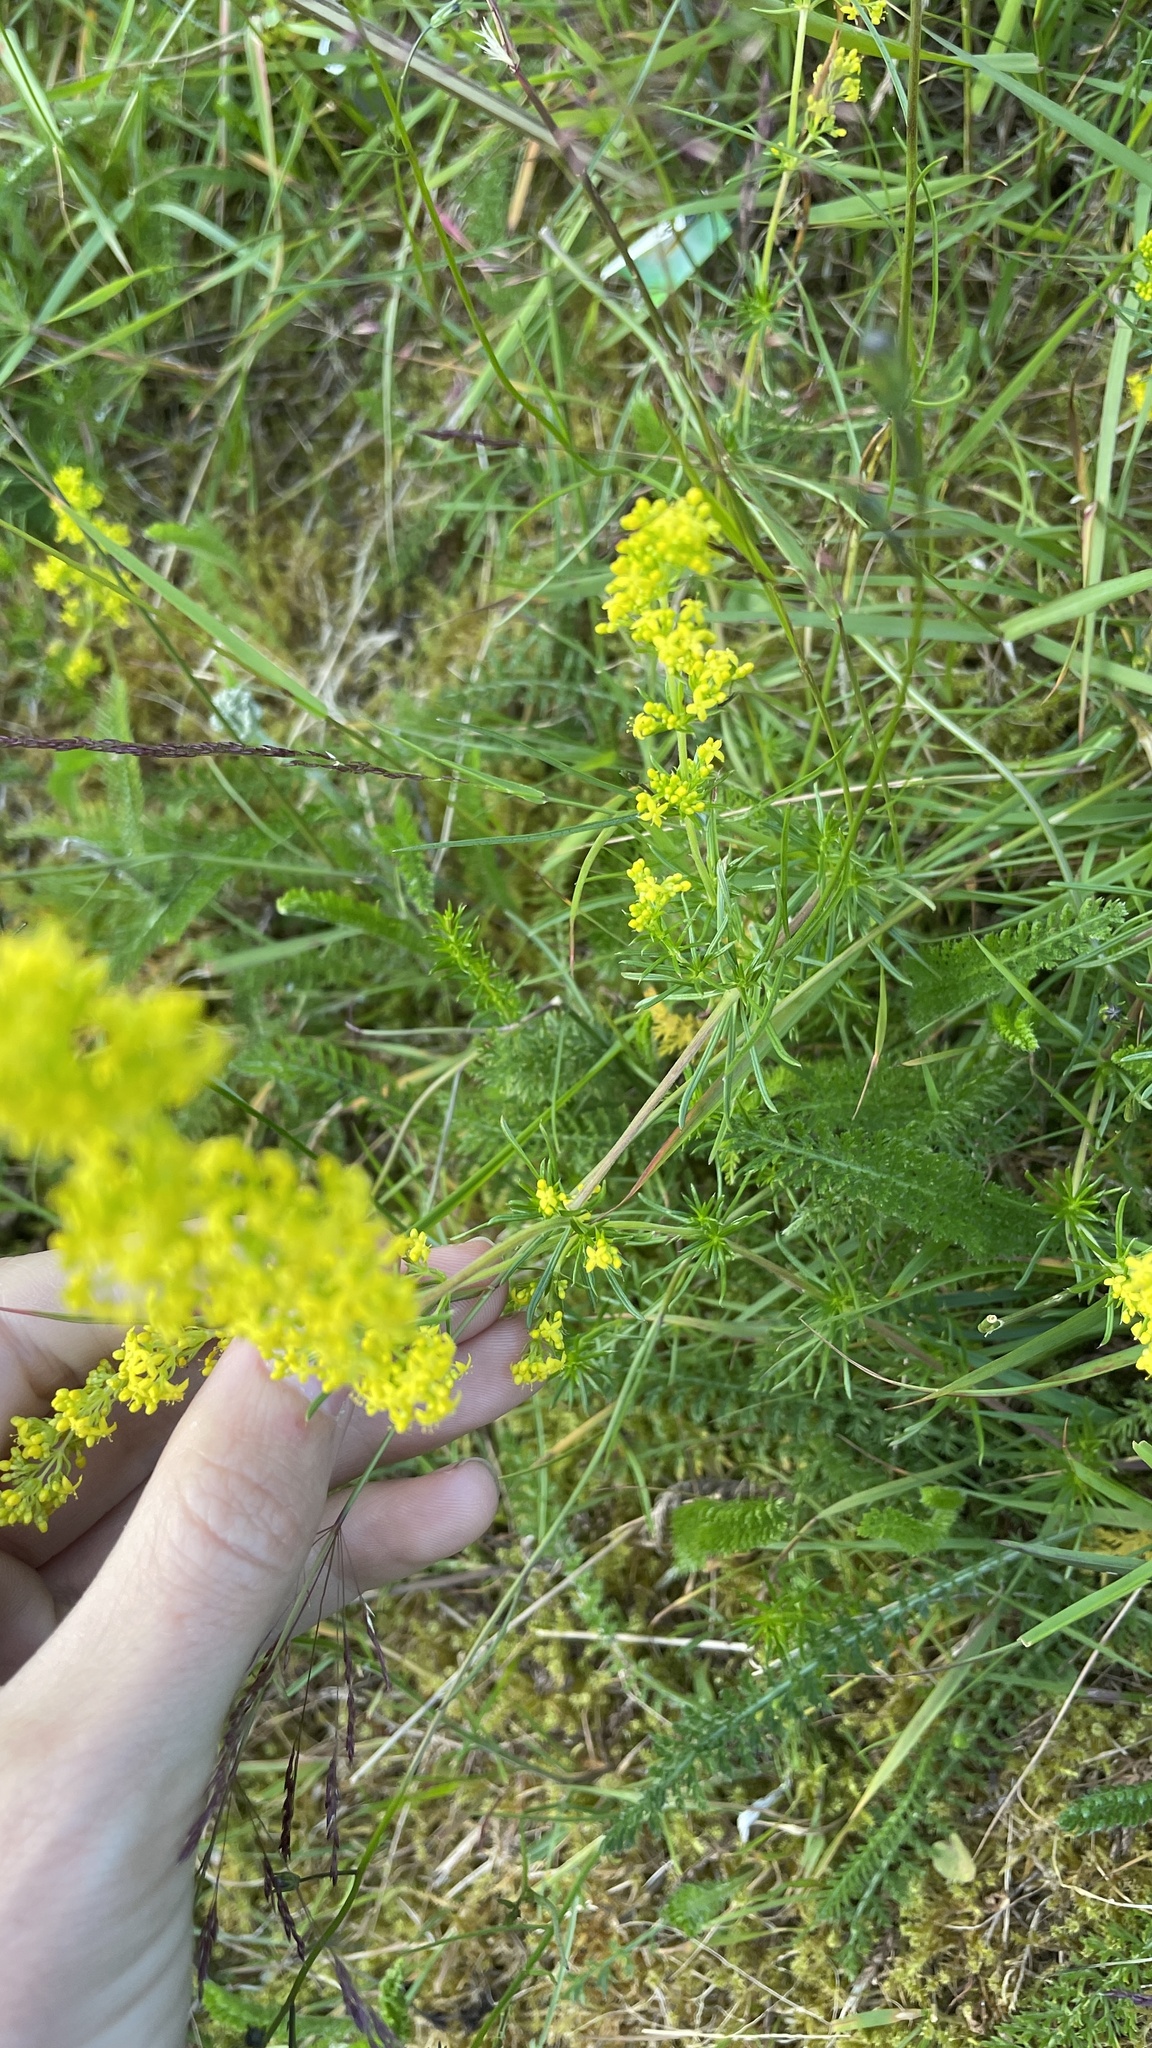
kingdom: Plantae
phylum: Tracheophyta
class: Magnoliopsida
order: Gentianales
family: Rubiaceae
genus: Galium
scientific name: Galium verum
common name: Lady's bedstraw
